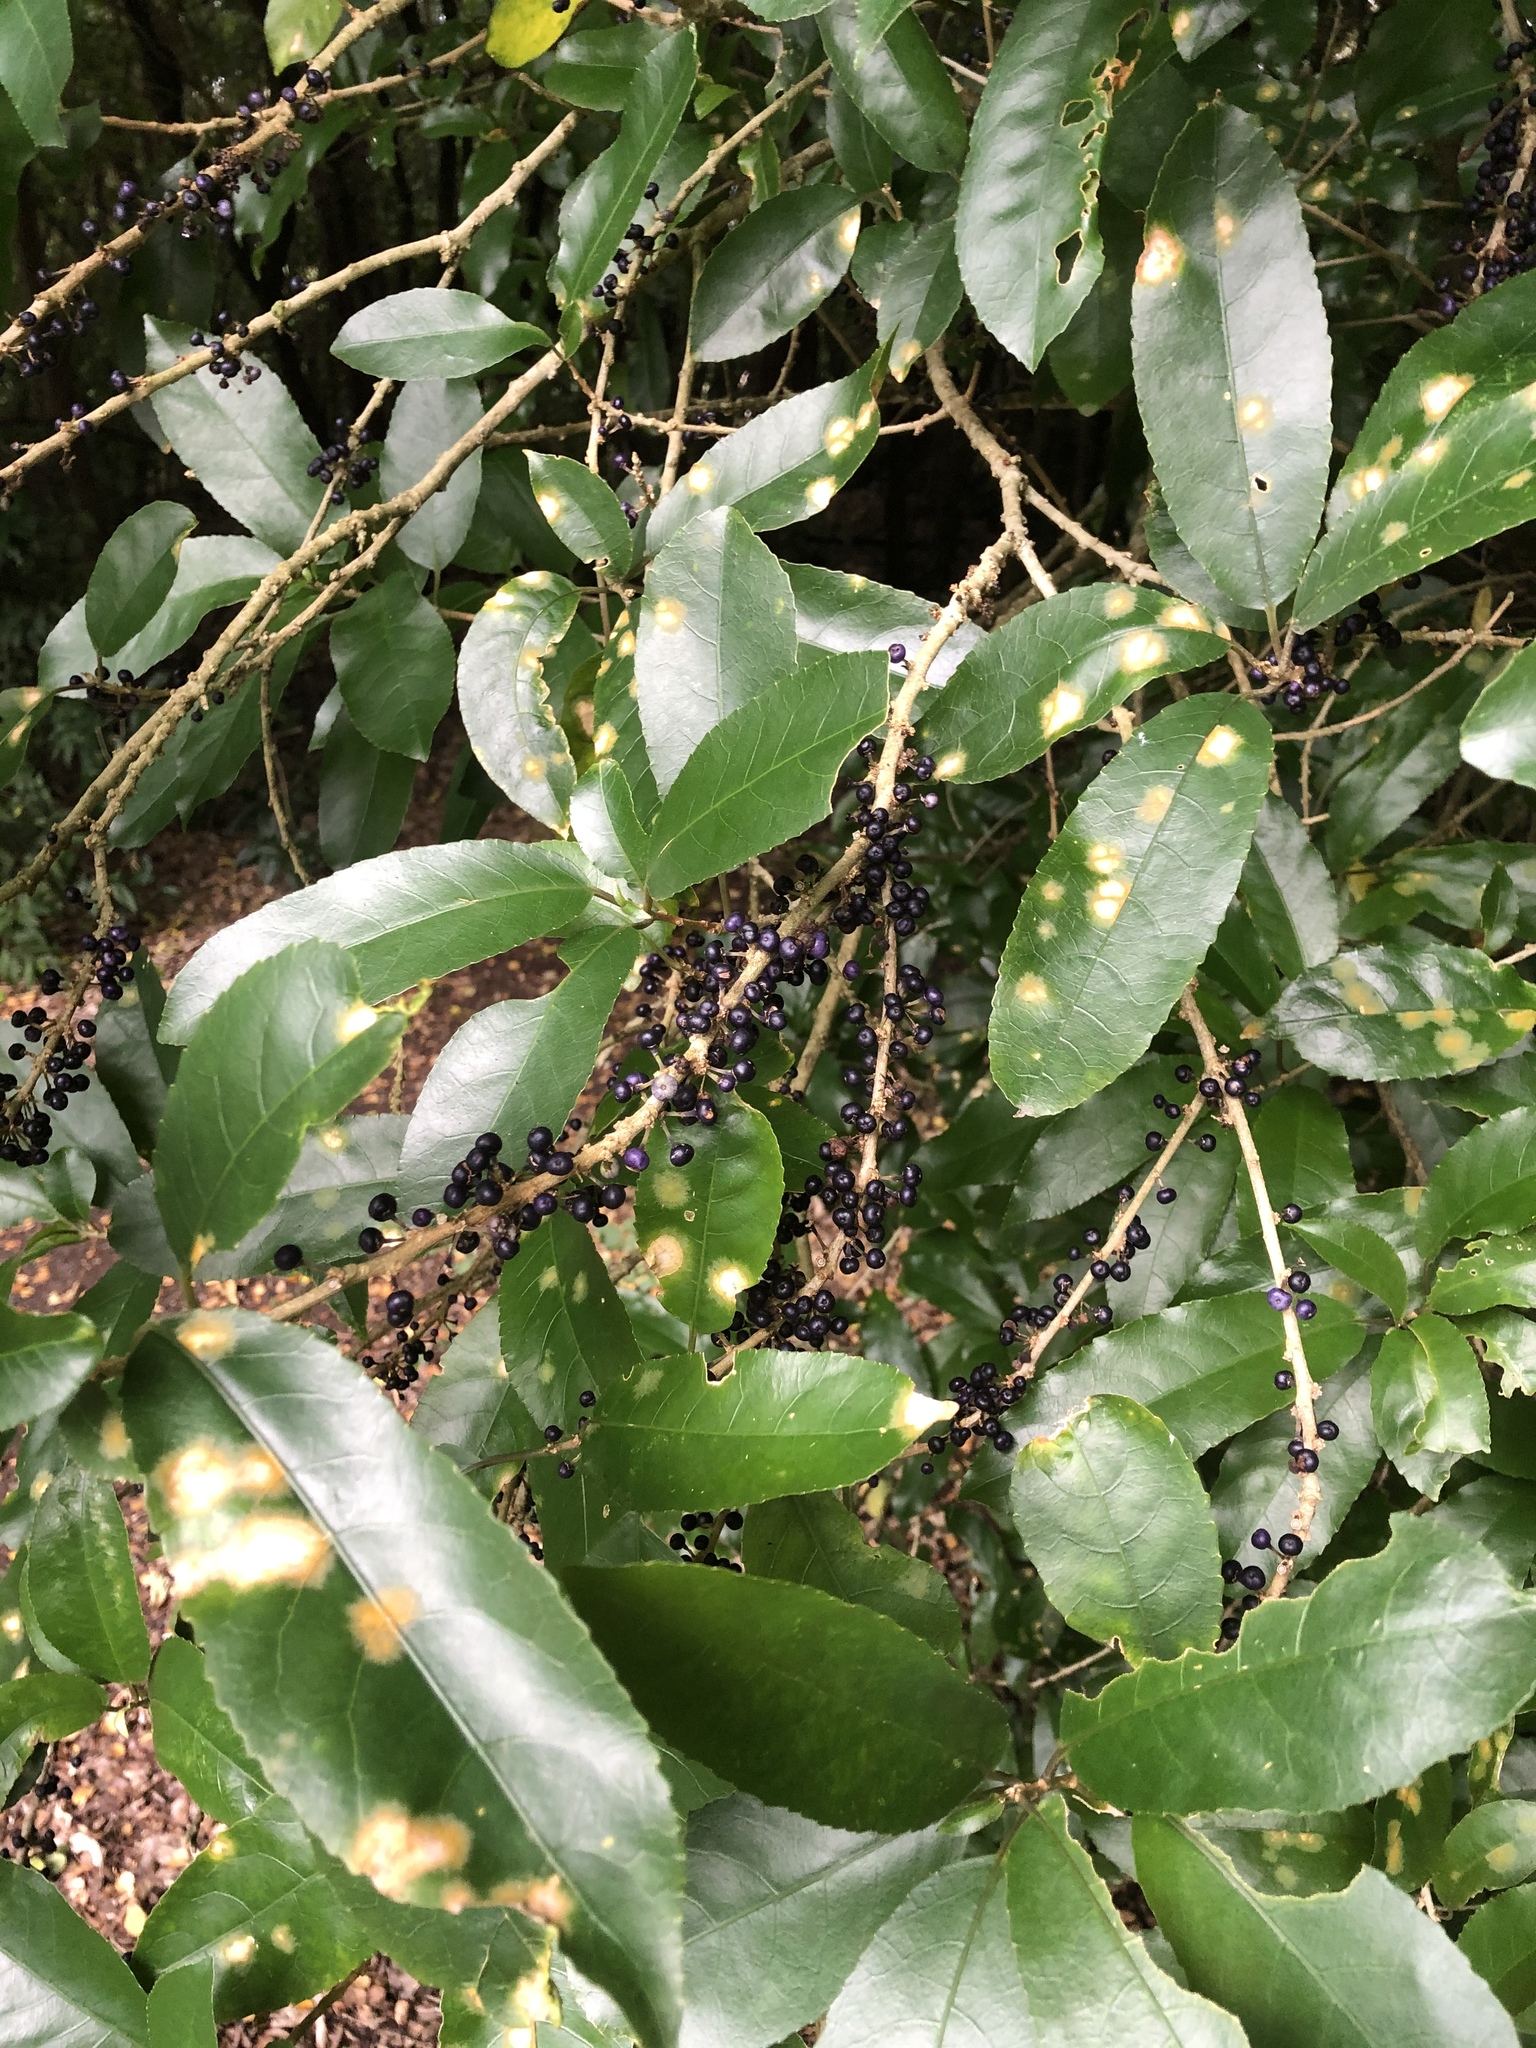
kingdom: Plantae
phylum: Tracheophyta
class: Magnoliopsida
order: Malpighiales
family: Violaceae
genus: Melicytus
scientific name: Melicytus ramiflorus
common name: Mahoe
